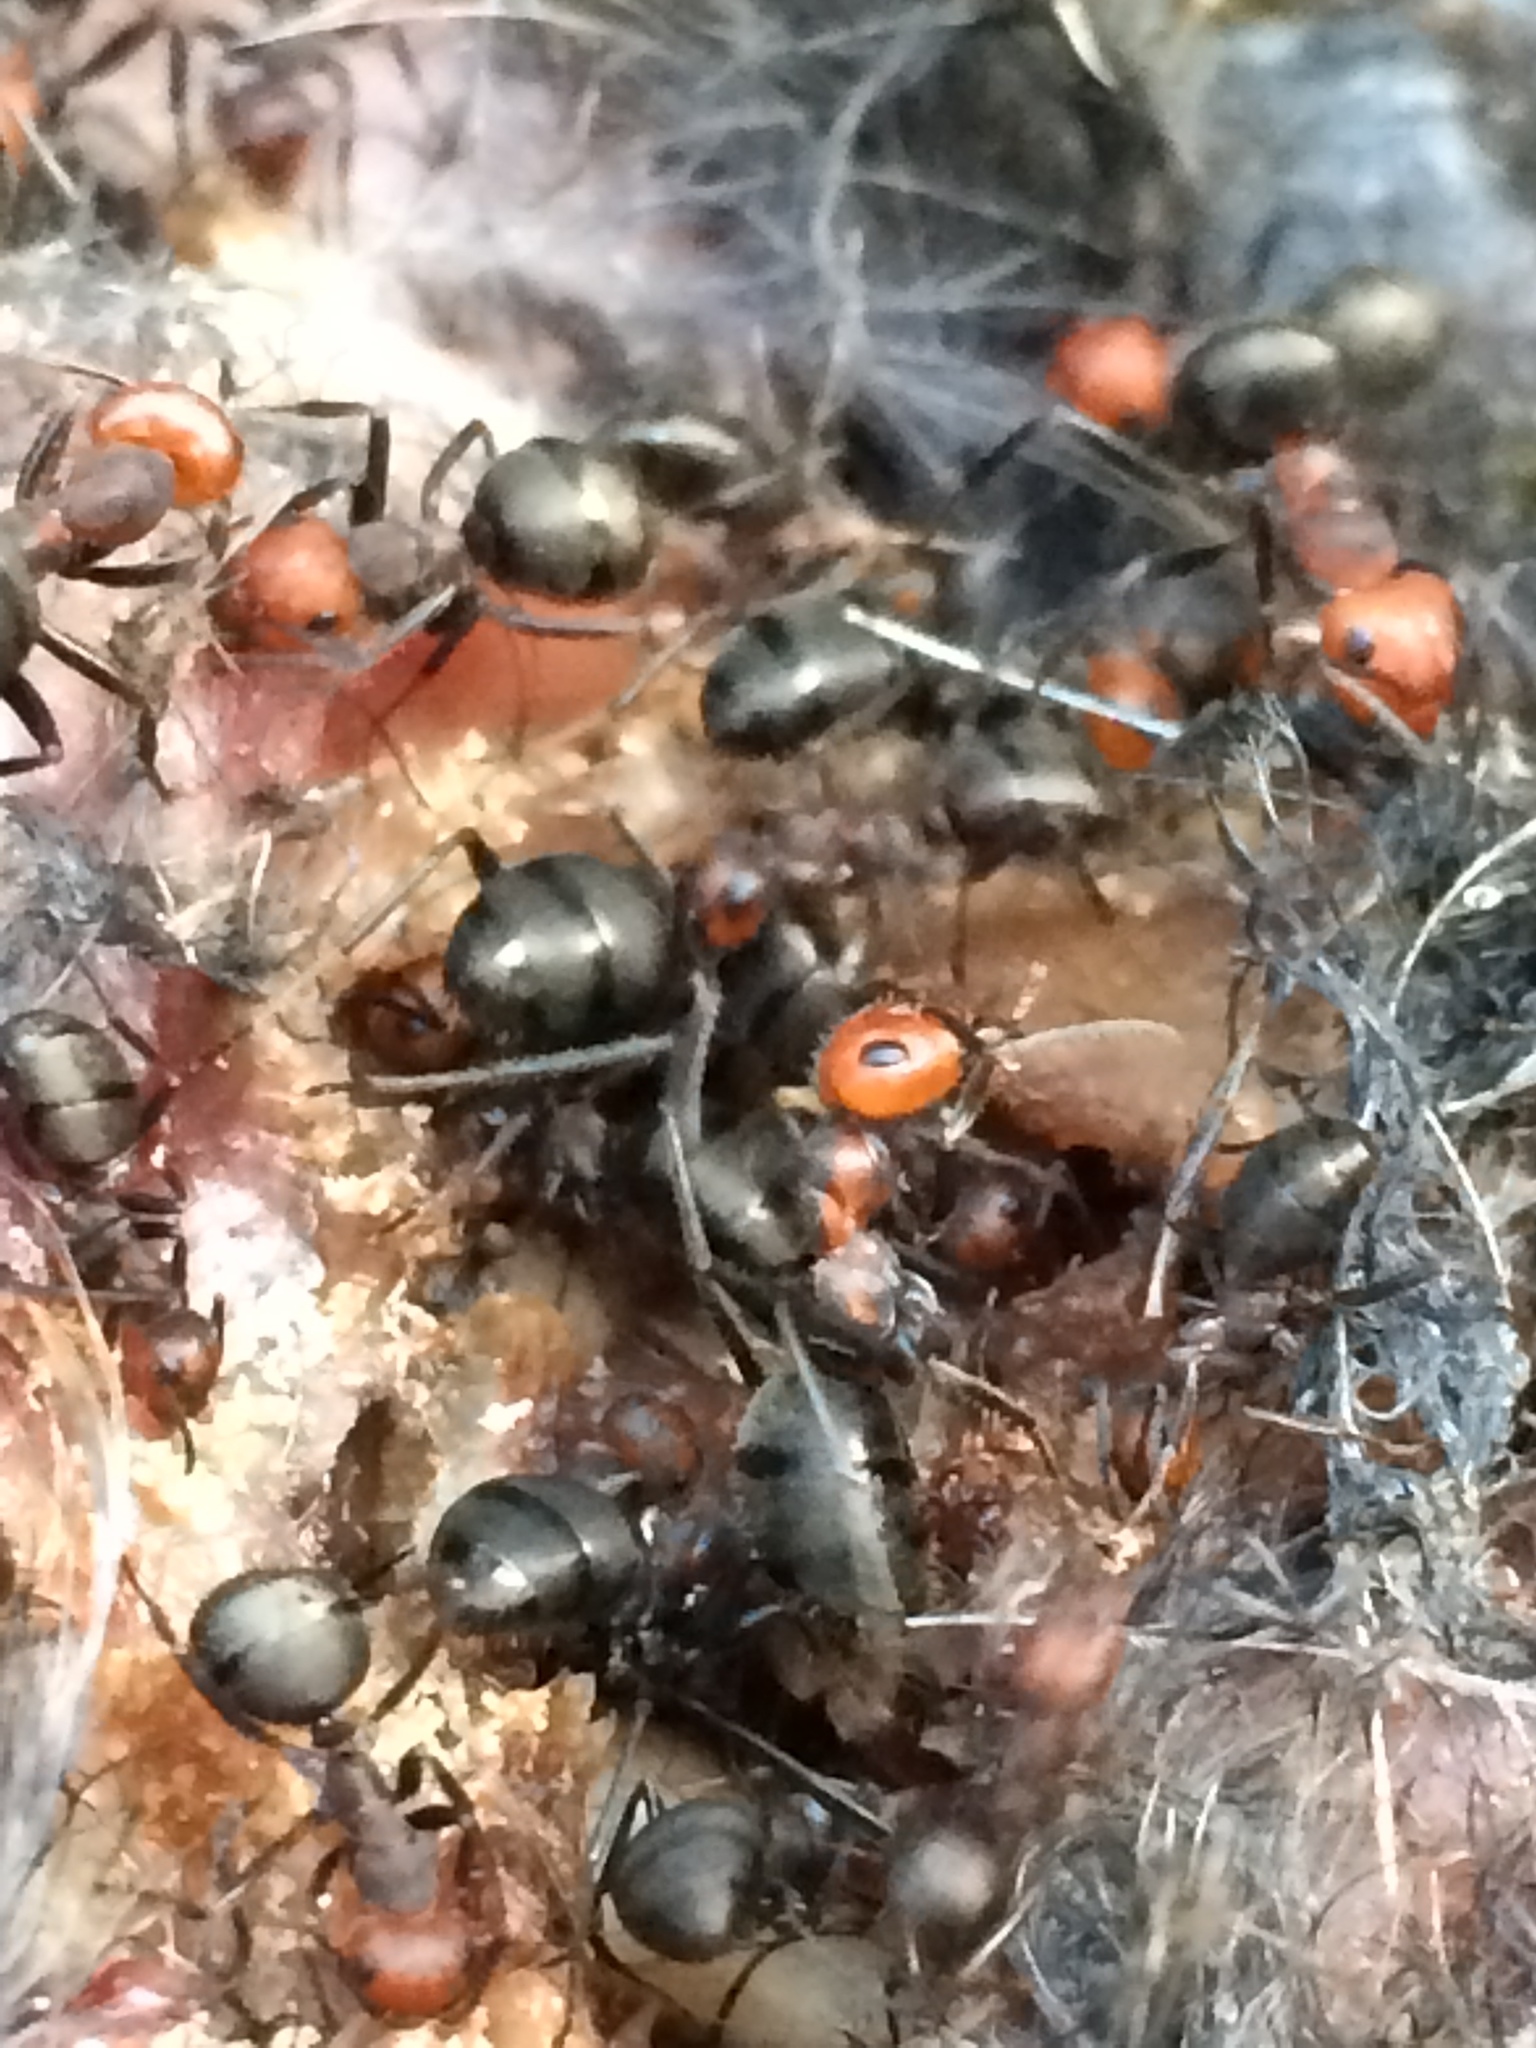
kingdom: Animalia
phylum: Arthropoda
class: Insecta
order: Hymenoptera
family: Formicidae
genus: Formica
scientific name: Formica obscuripes
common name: Western thatching ant
